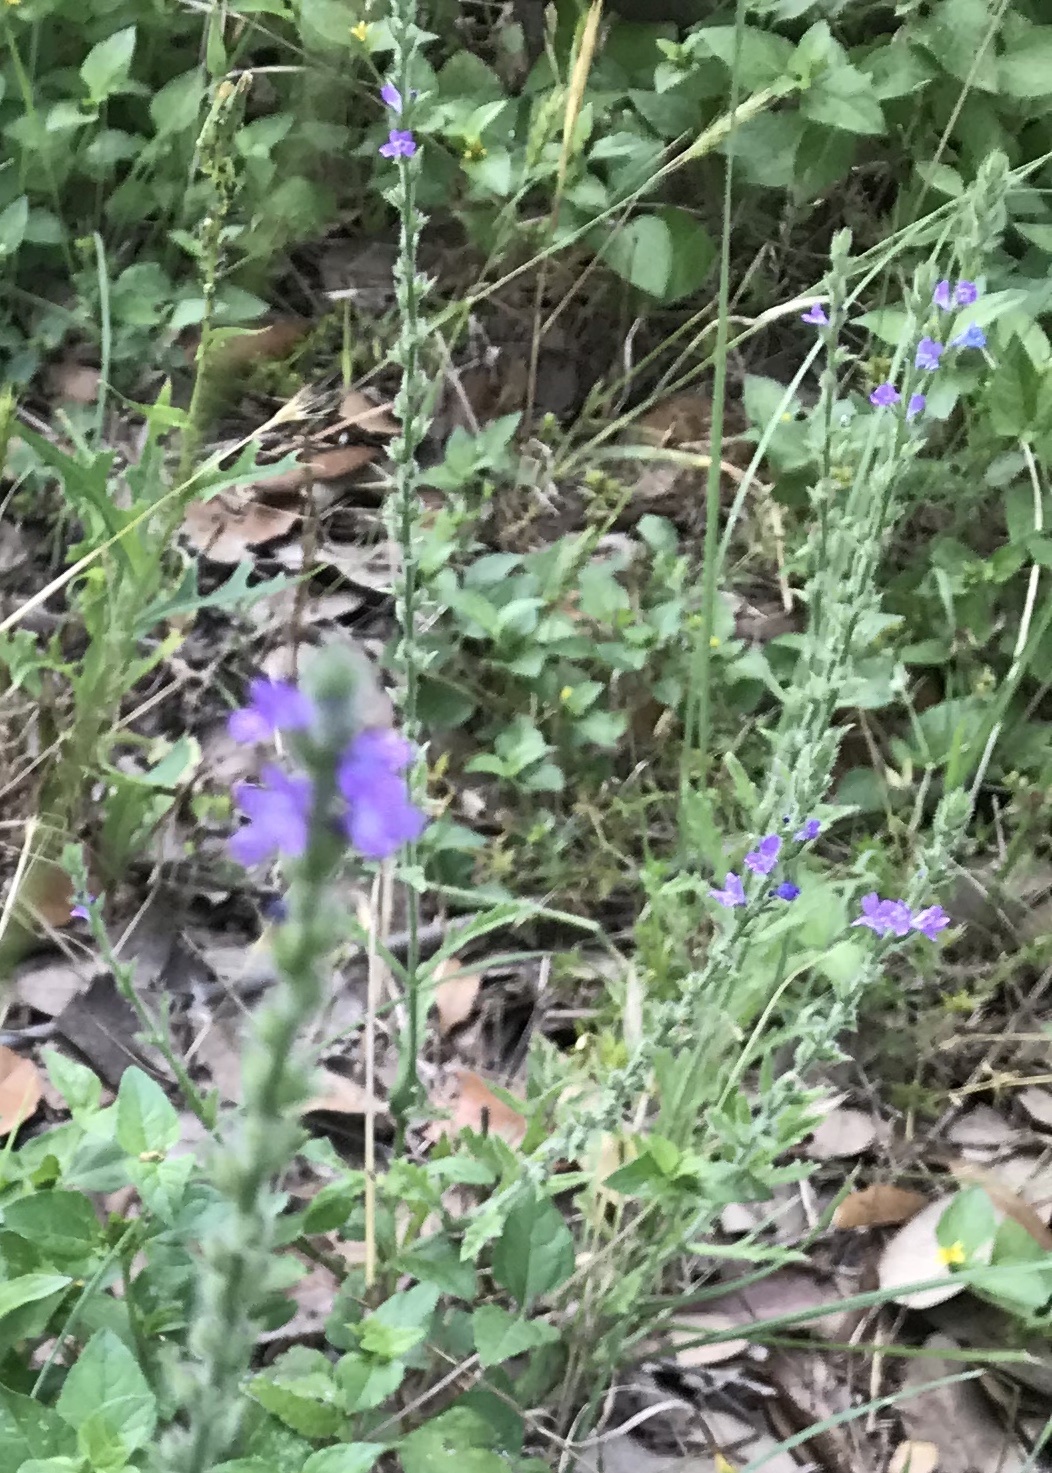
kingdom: Plantae
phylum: Tracheophyta
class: Magnoliopsida
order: Lamiales
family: Verbenaceae
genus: Verbena
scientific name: Verbena canescens
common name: Gray vervain
